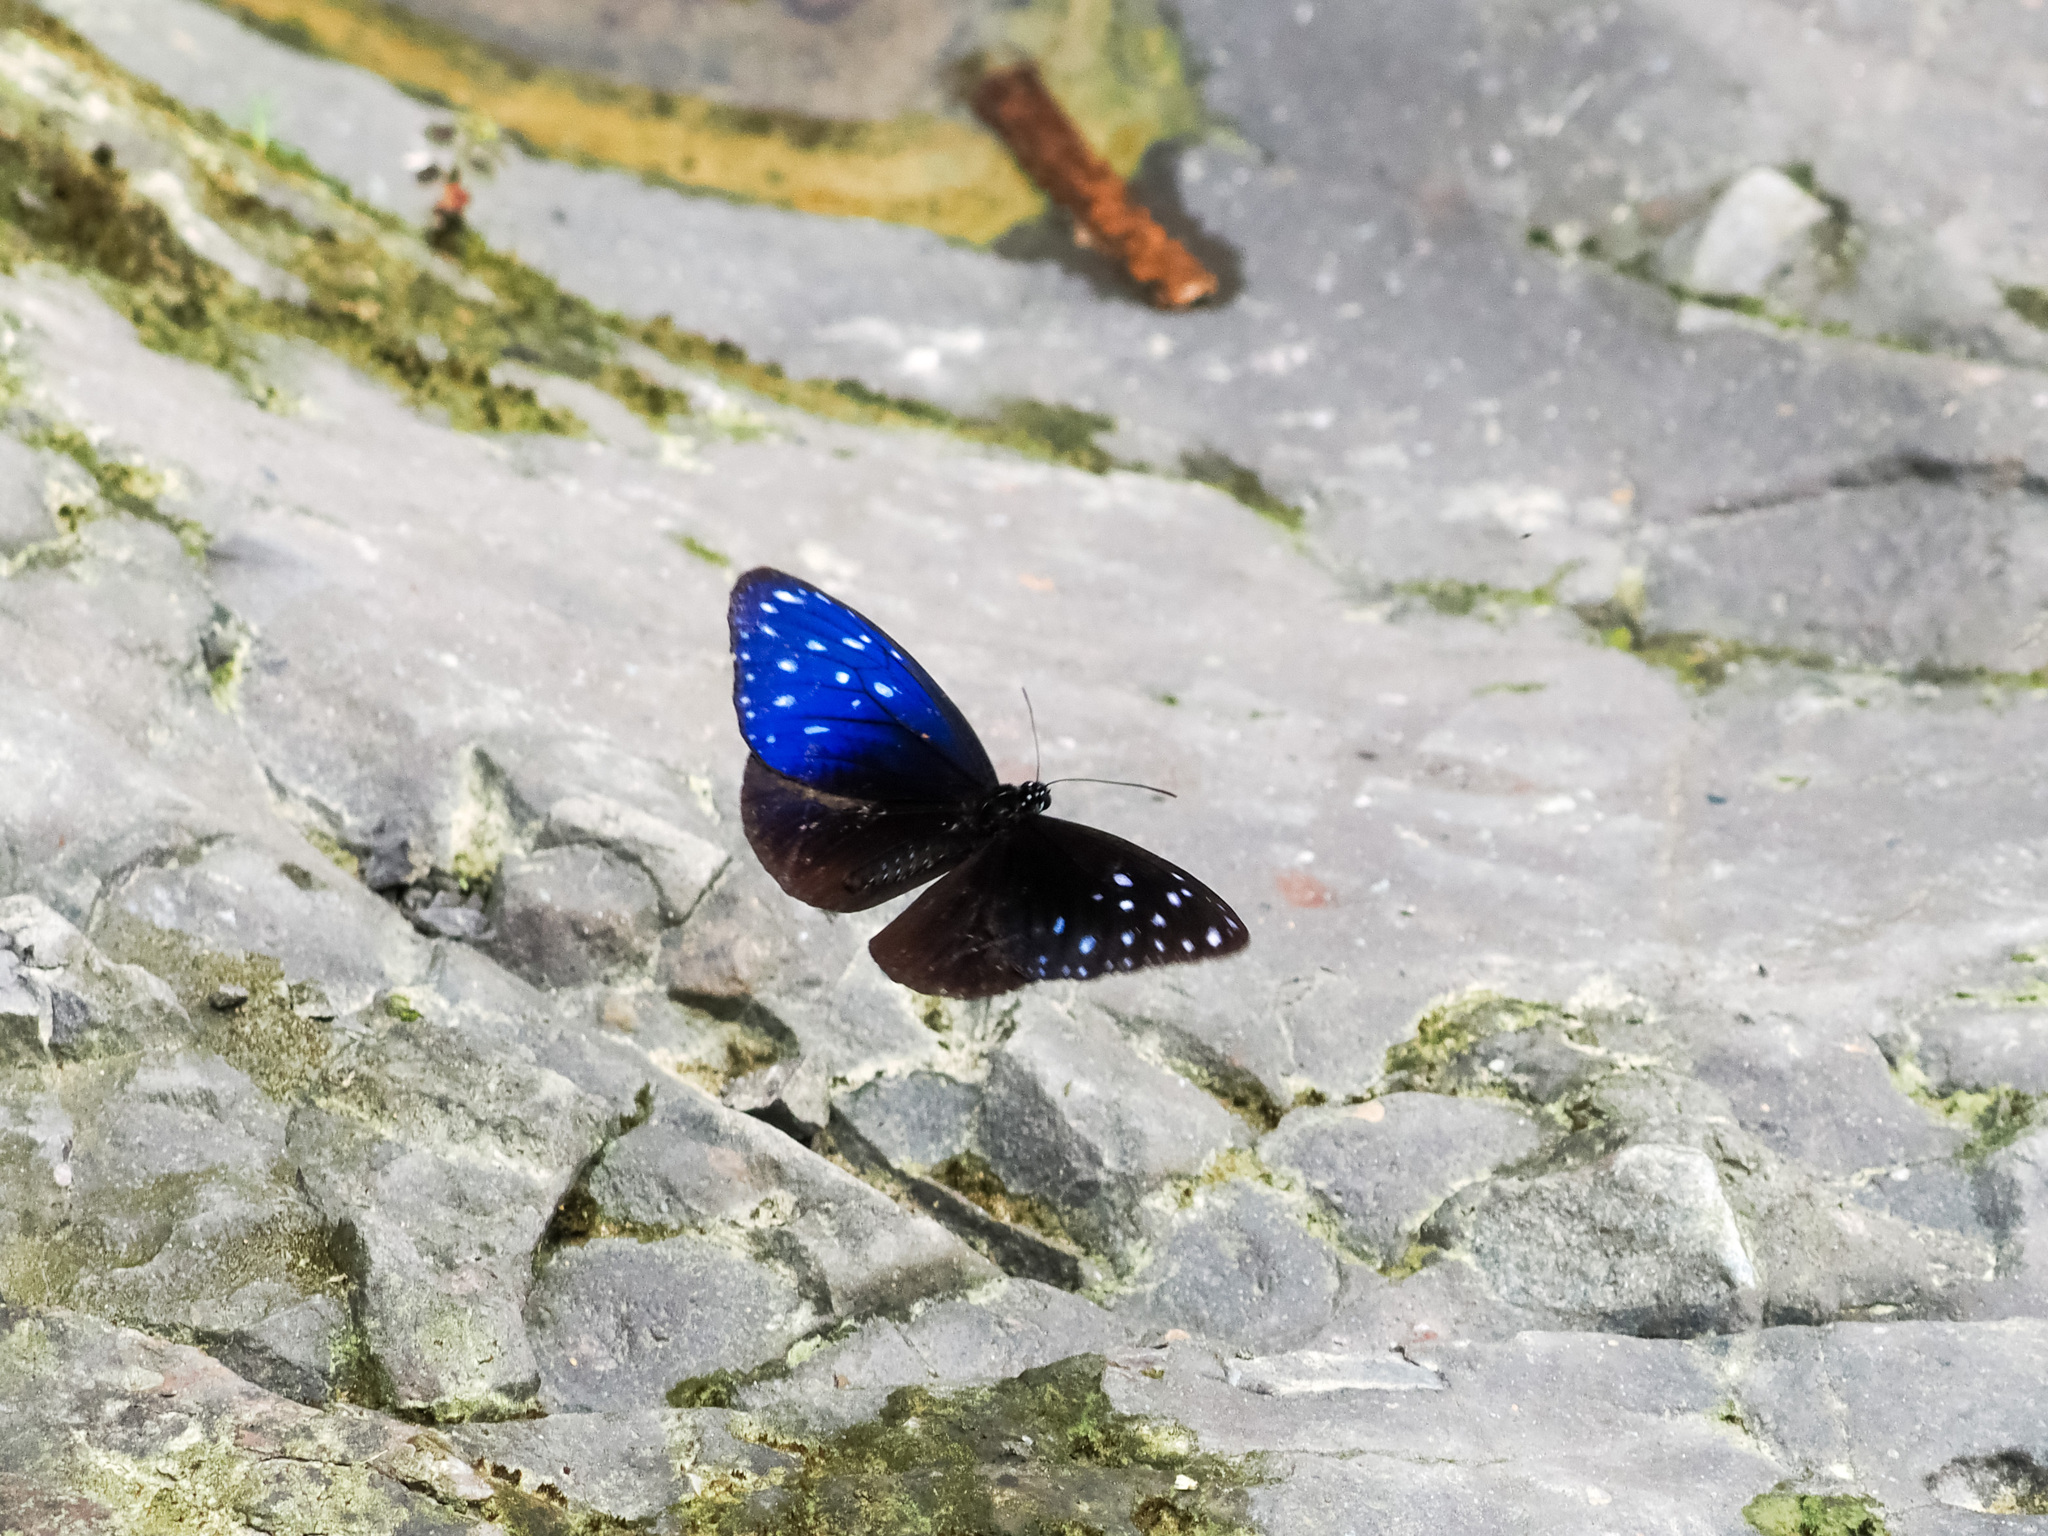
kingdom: Animalia
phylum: Arthropoda
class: Insecta
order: Lepidoptera
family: Nymphalidae
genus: Euploea
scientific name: Euploea mulciber
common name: Striped blue crow butterfly
